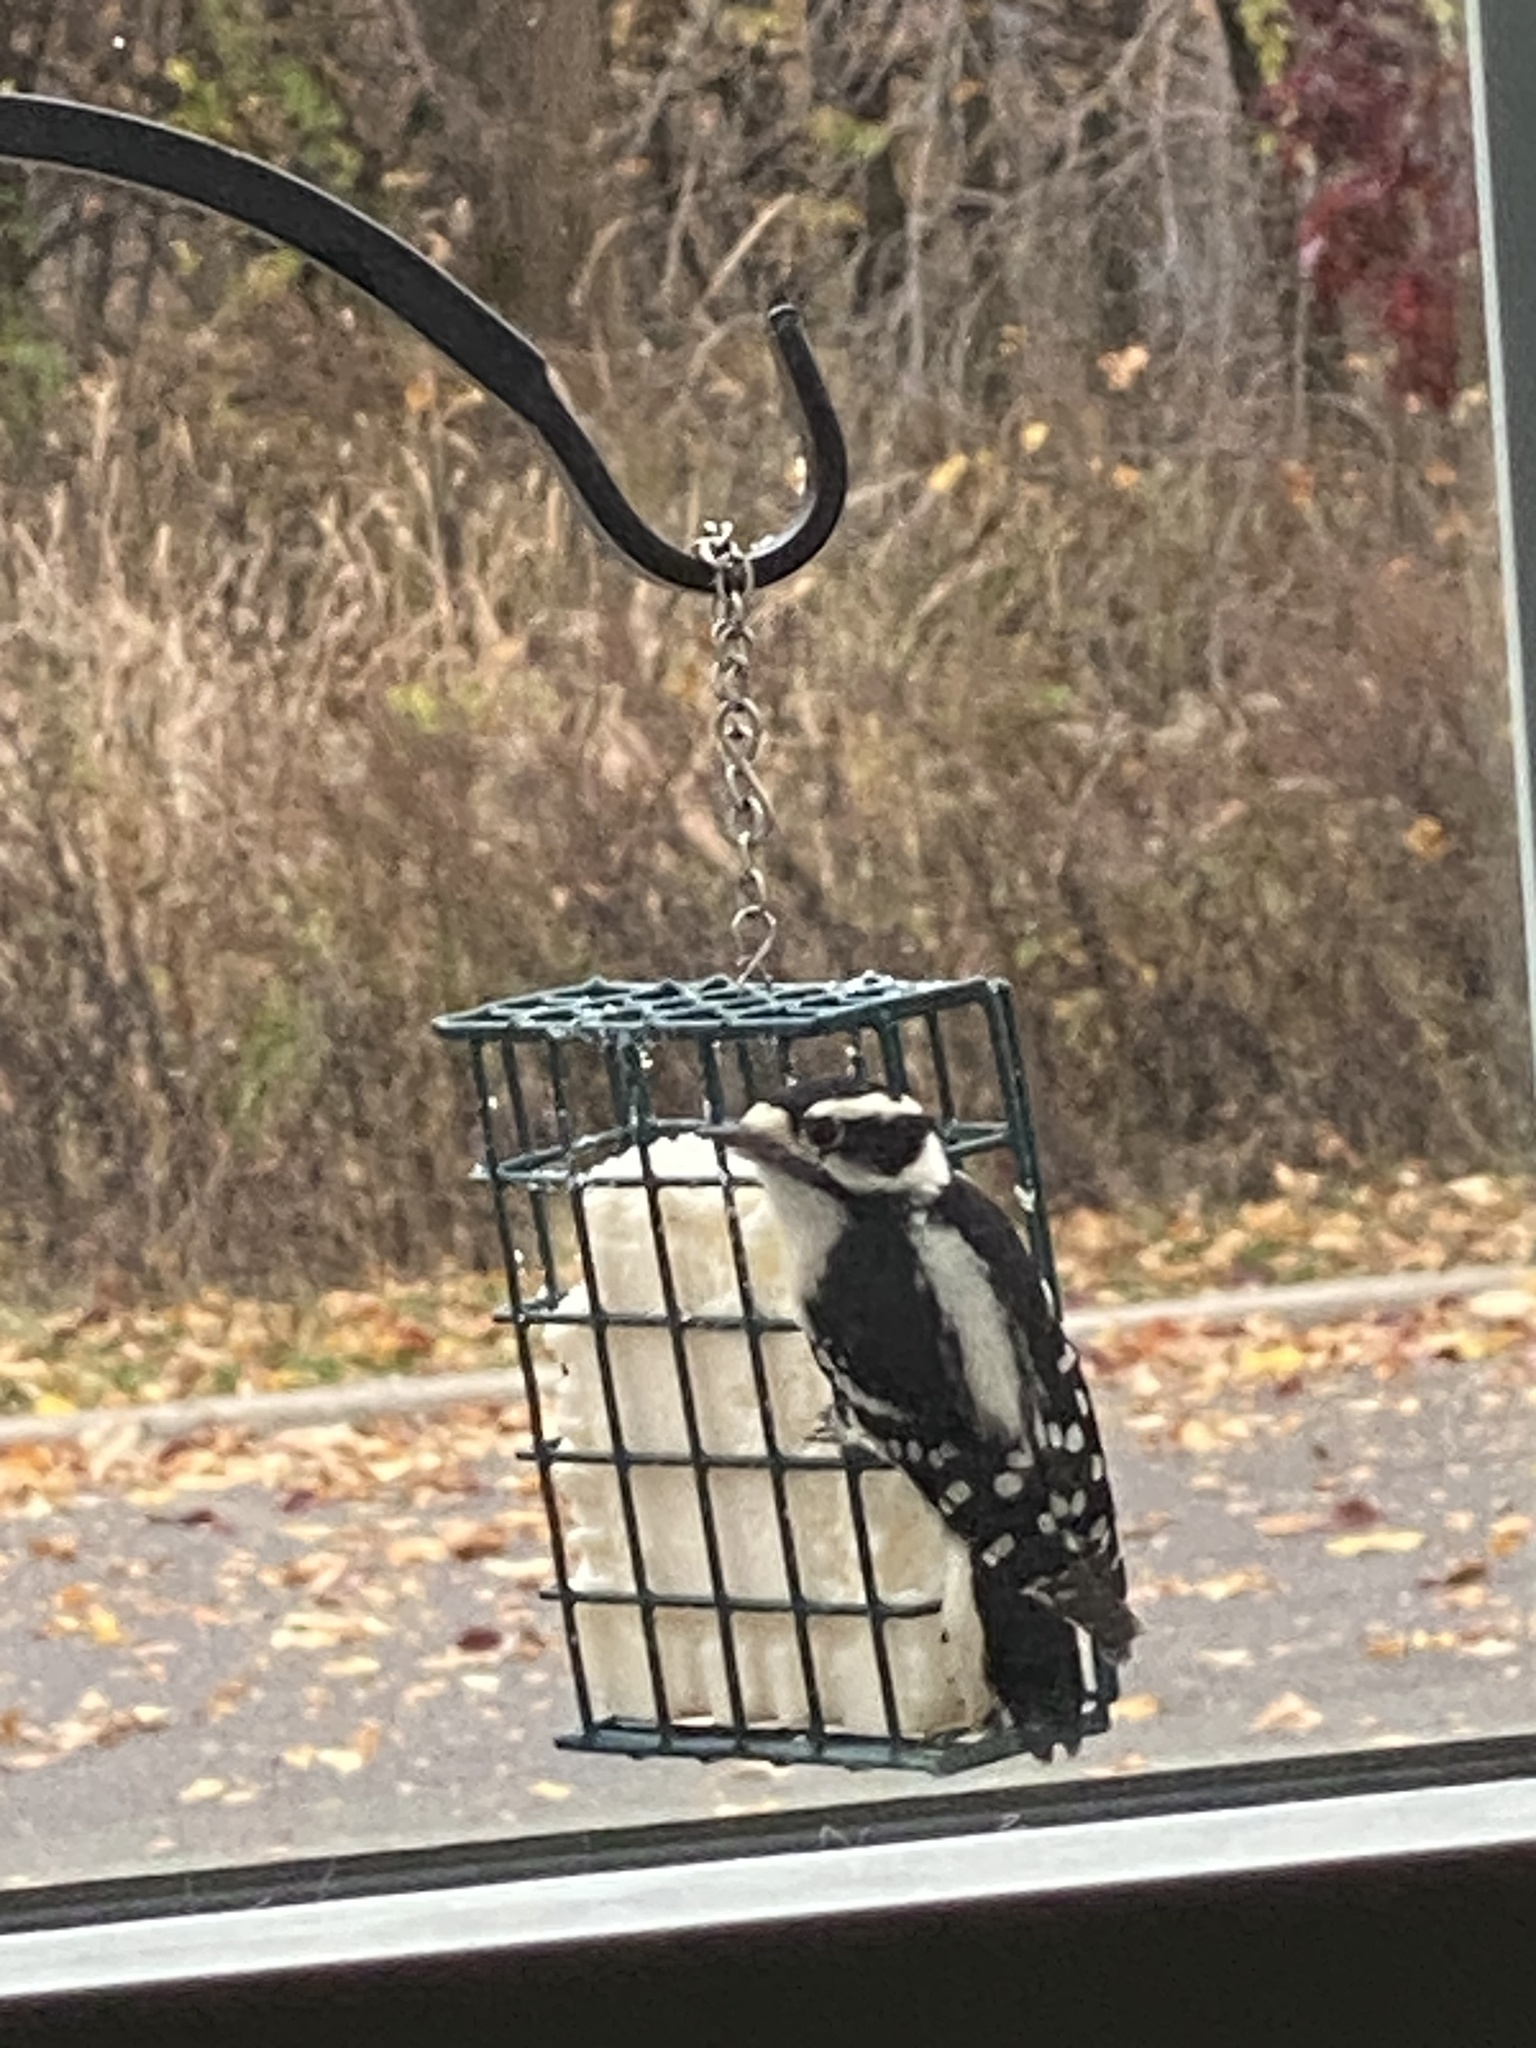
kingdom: Animalia
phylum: Chordata
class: Aves
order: Piciformes
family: Picidae
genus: Dryobates
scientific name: Dryobates pubescens
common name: Downy woodpecker
